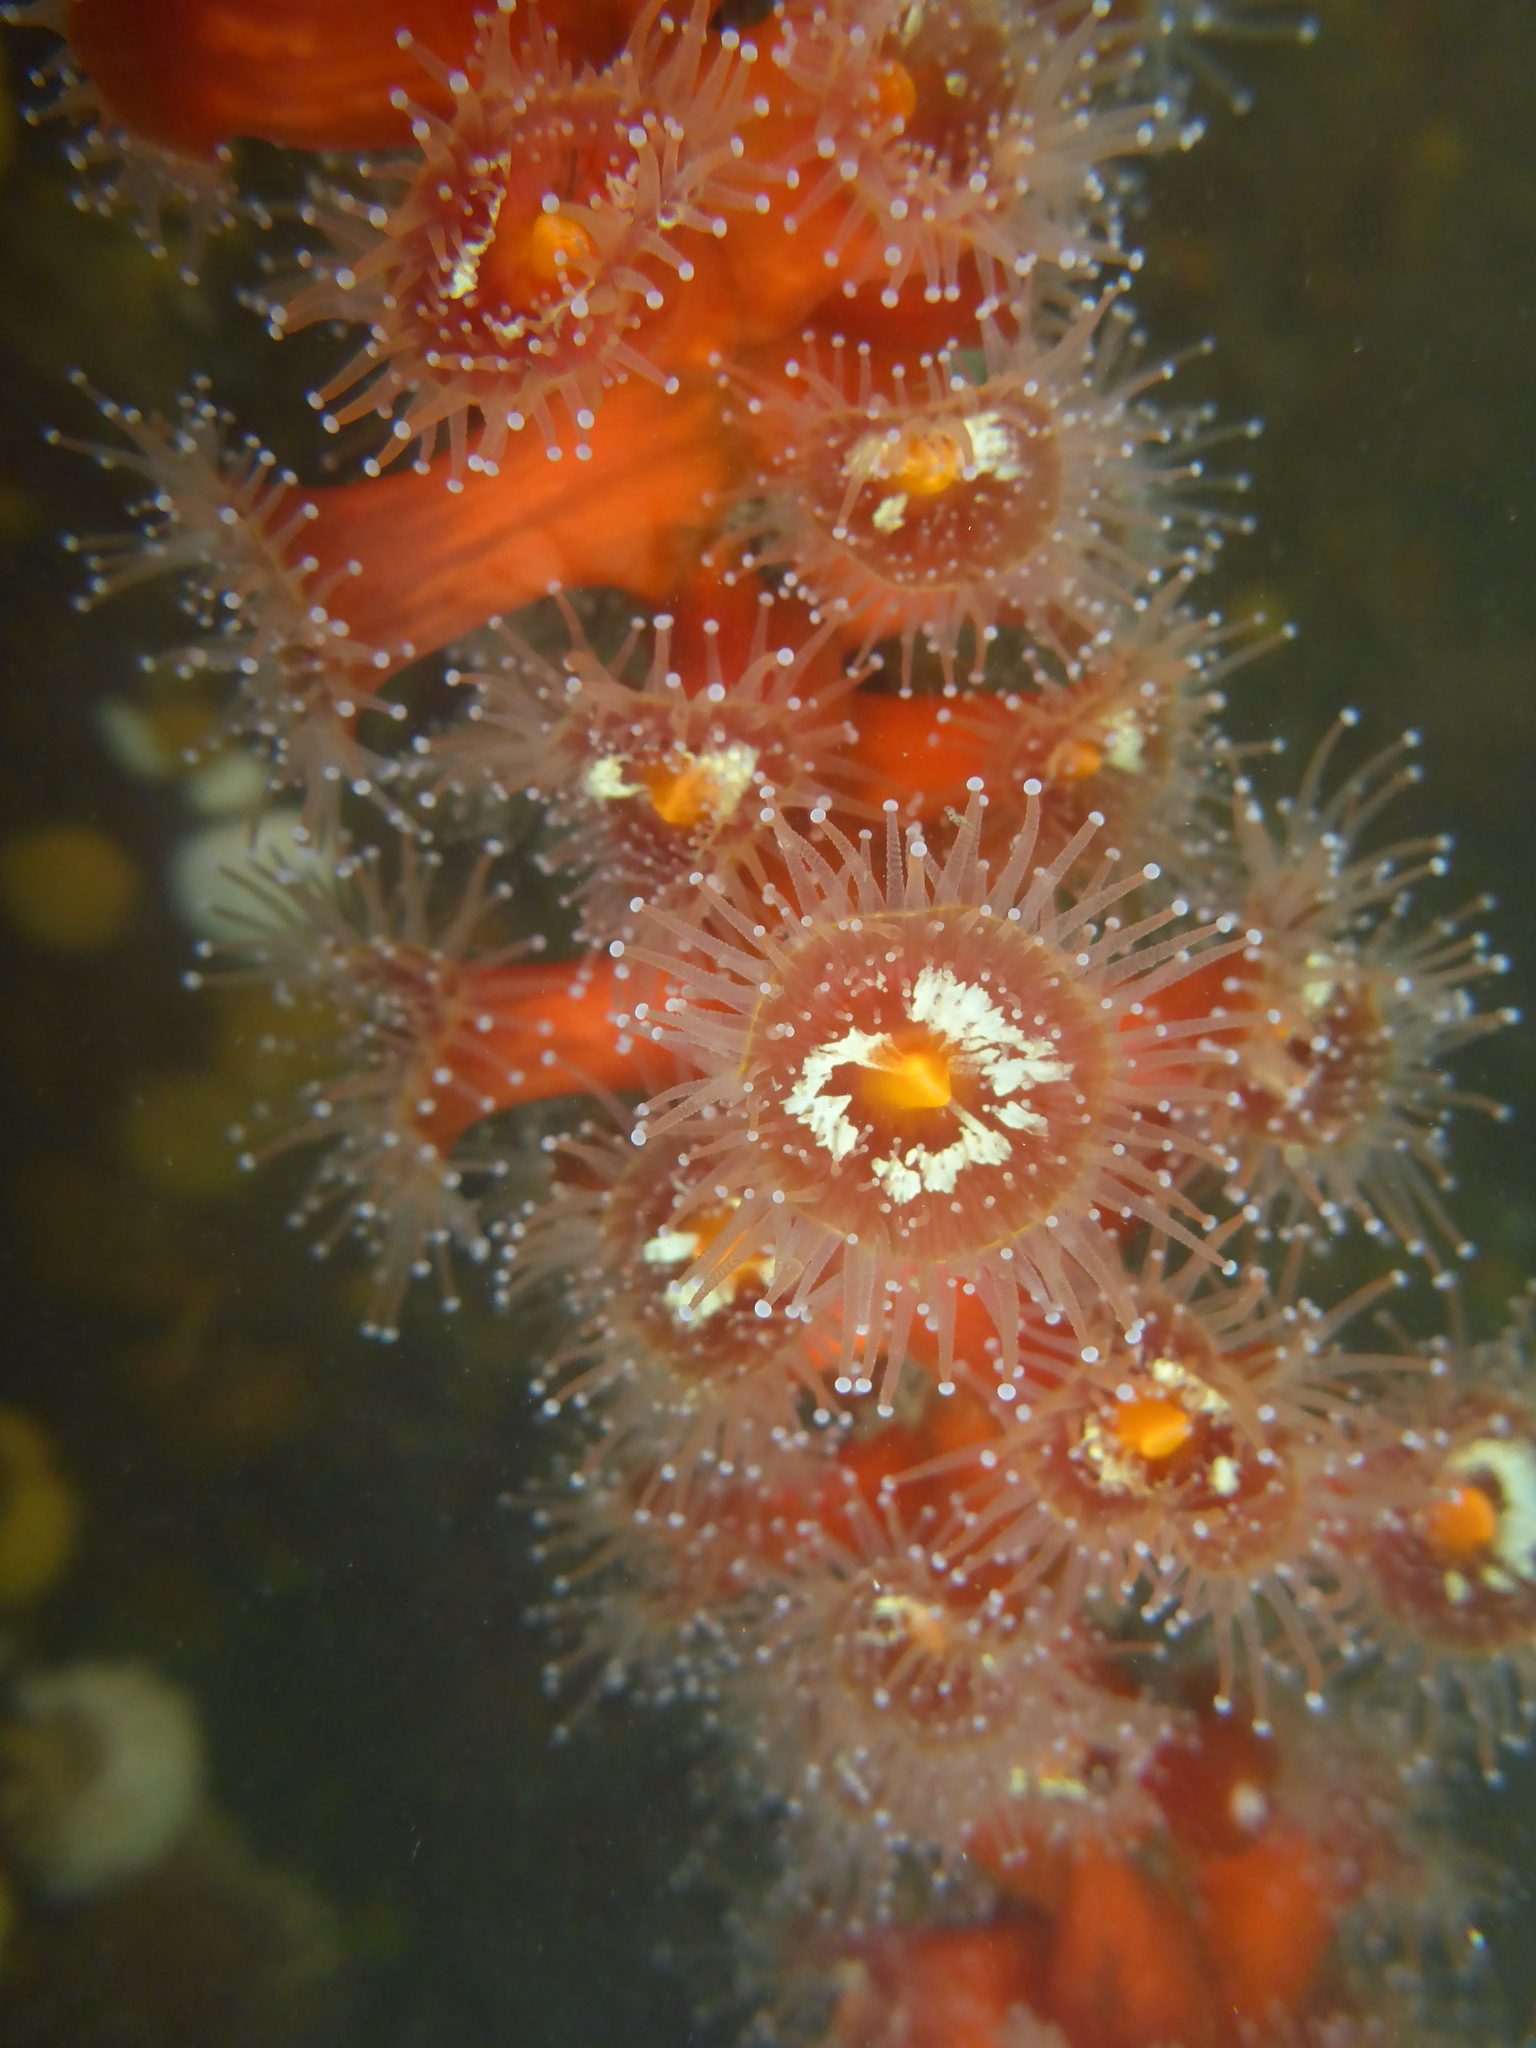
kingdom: Animalia
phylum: Cnidaria
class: Anthozoa
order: Corallimorpharia
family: Corallimorphidae
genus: Corynactis
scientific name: Corynactis californica
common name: Strawberry corallimorpharian
